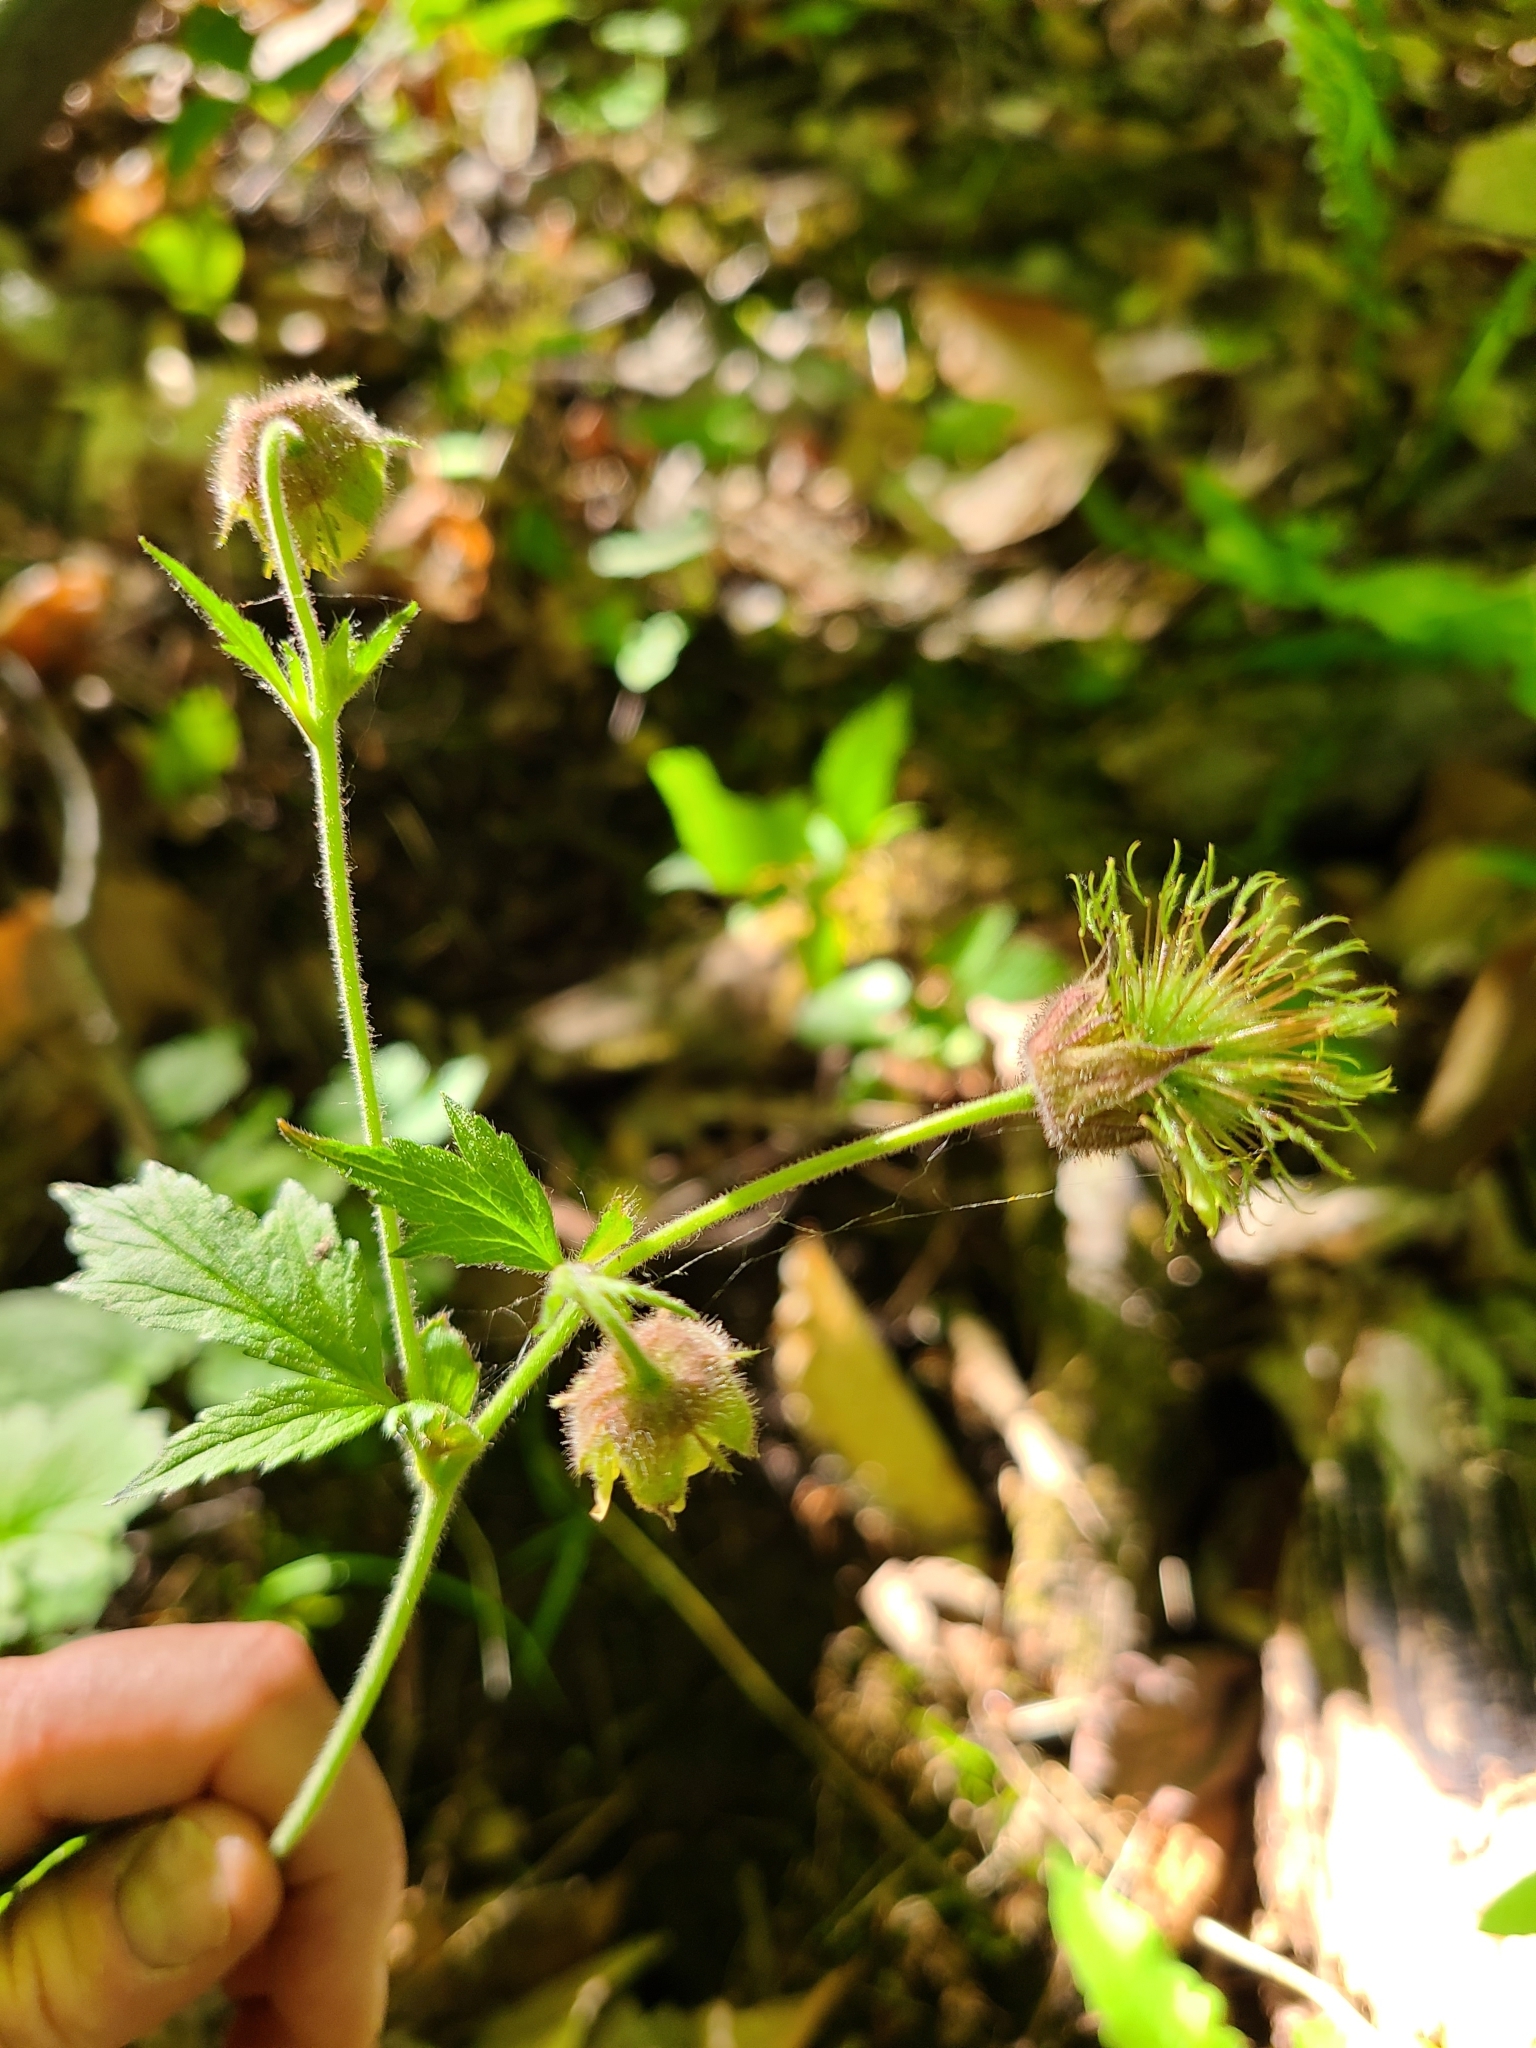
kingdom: Plantae
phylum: Tracheophyta
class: Magnoliopsida
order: Rosales
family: Rosaceae
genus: Geum
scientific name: Geum rivale
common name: Water avens
